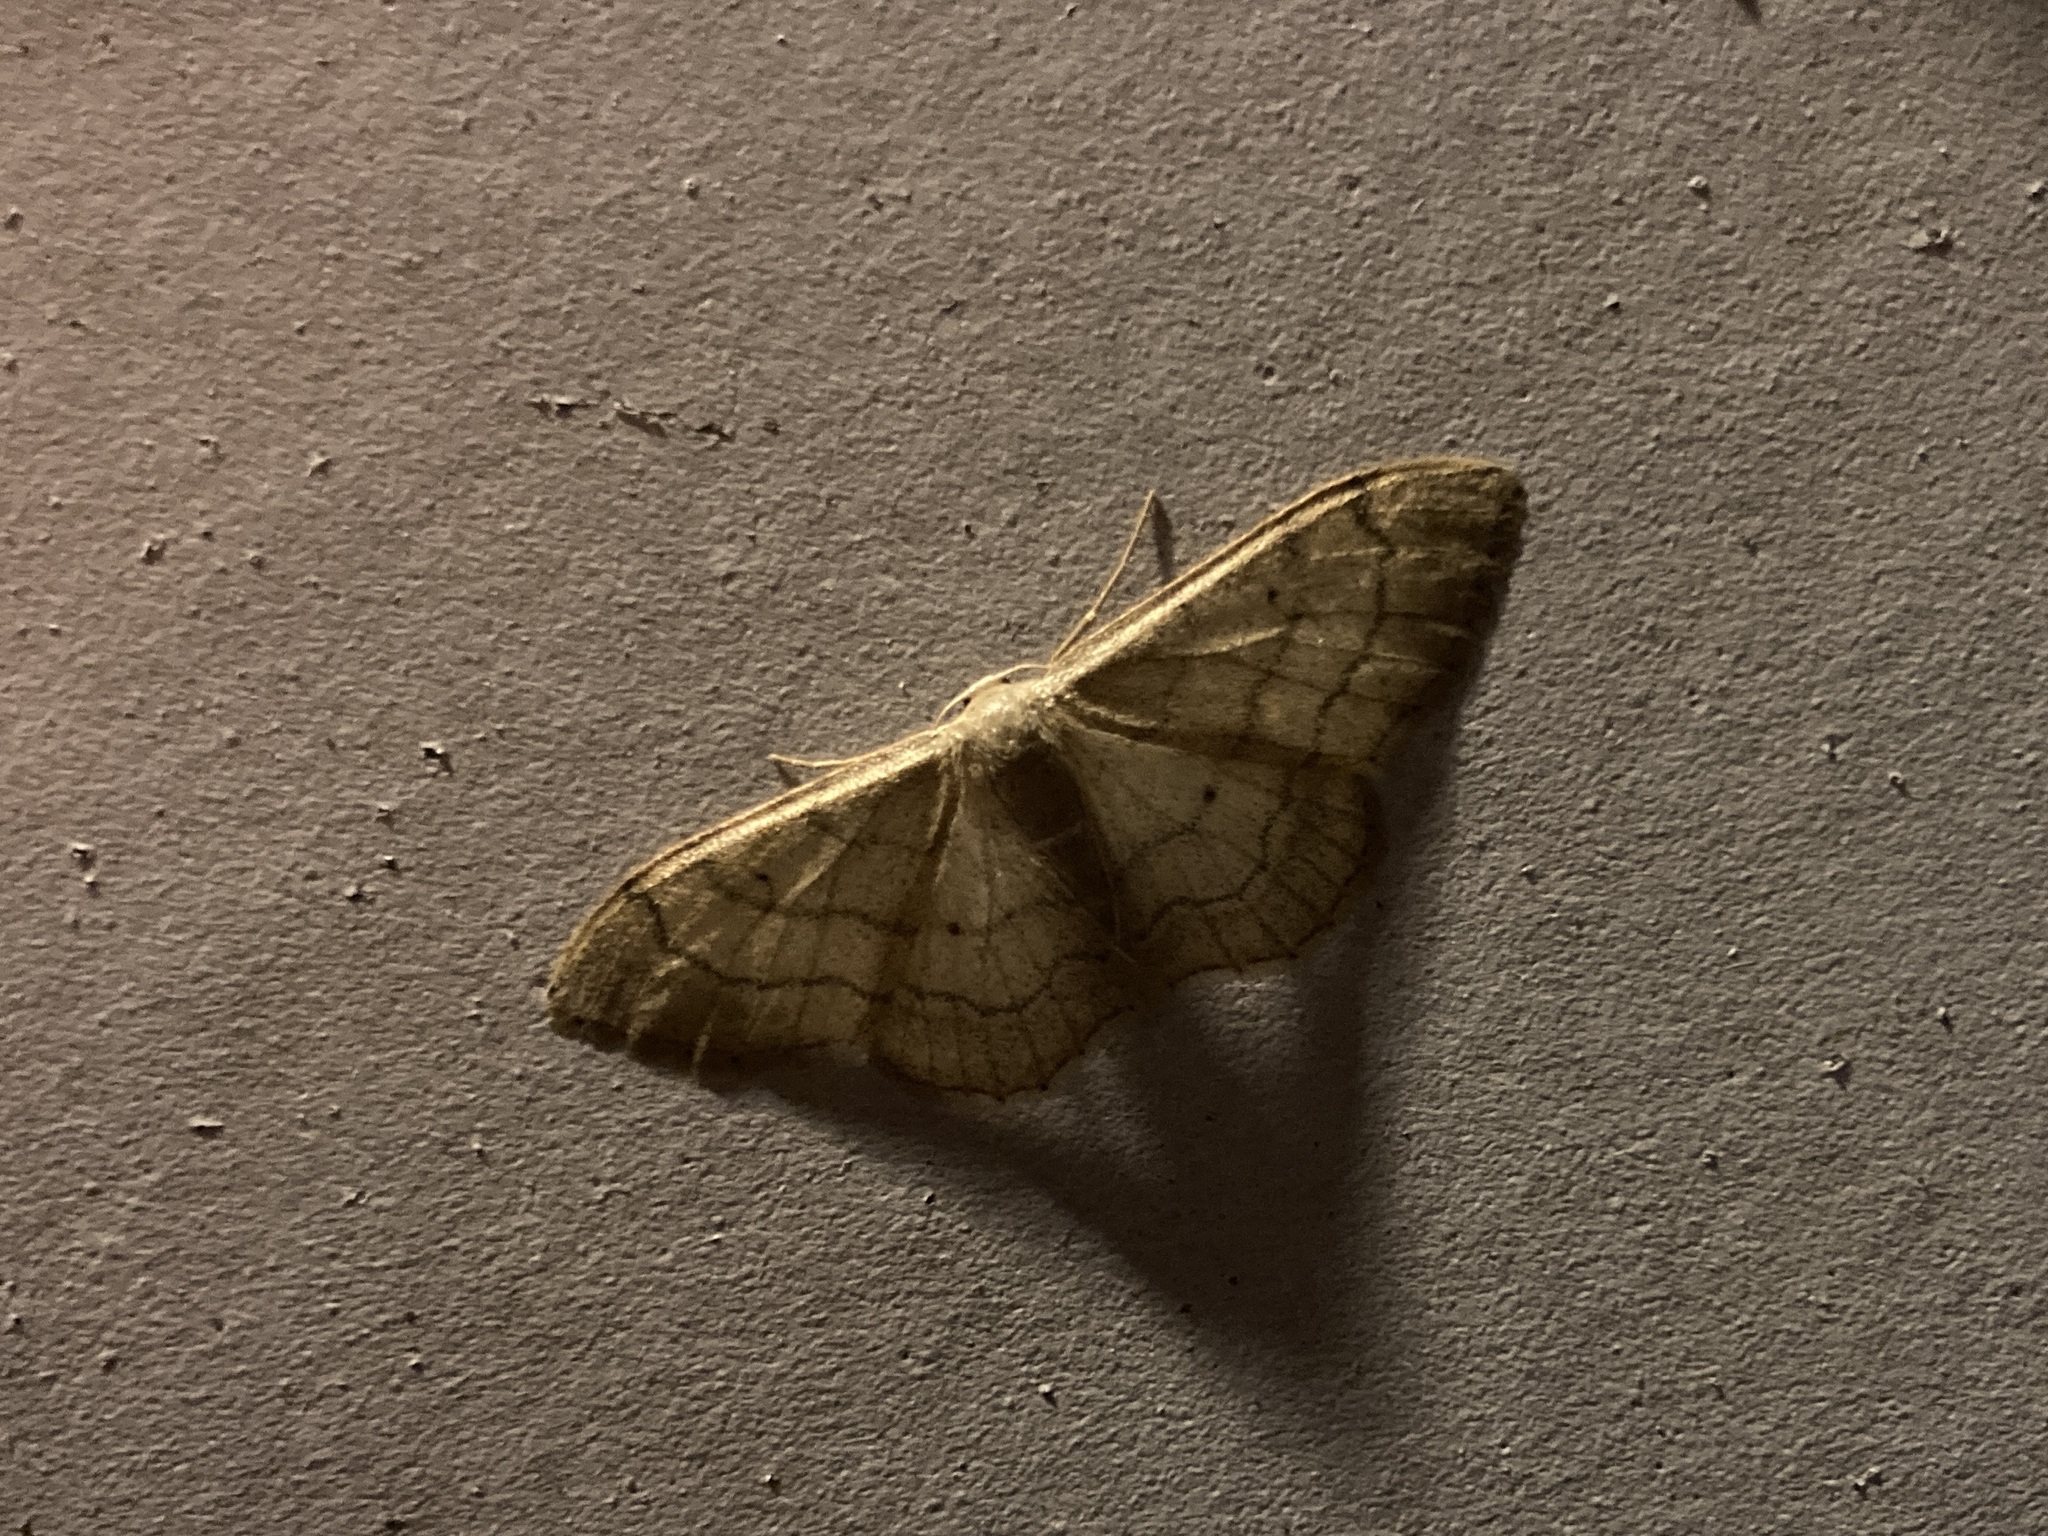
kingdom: Animalia
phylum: Arthropoda
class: Insecta
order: Lepidoptera
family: Geometridae
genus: Idaea
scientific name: Idaea aversata
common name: Riband wave
